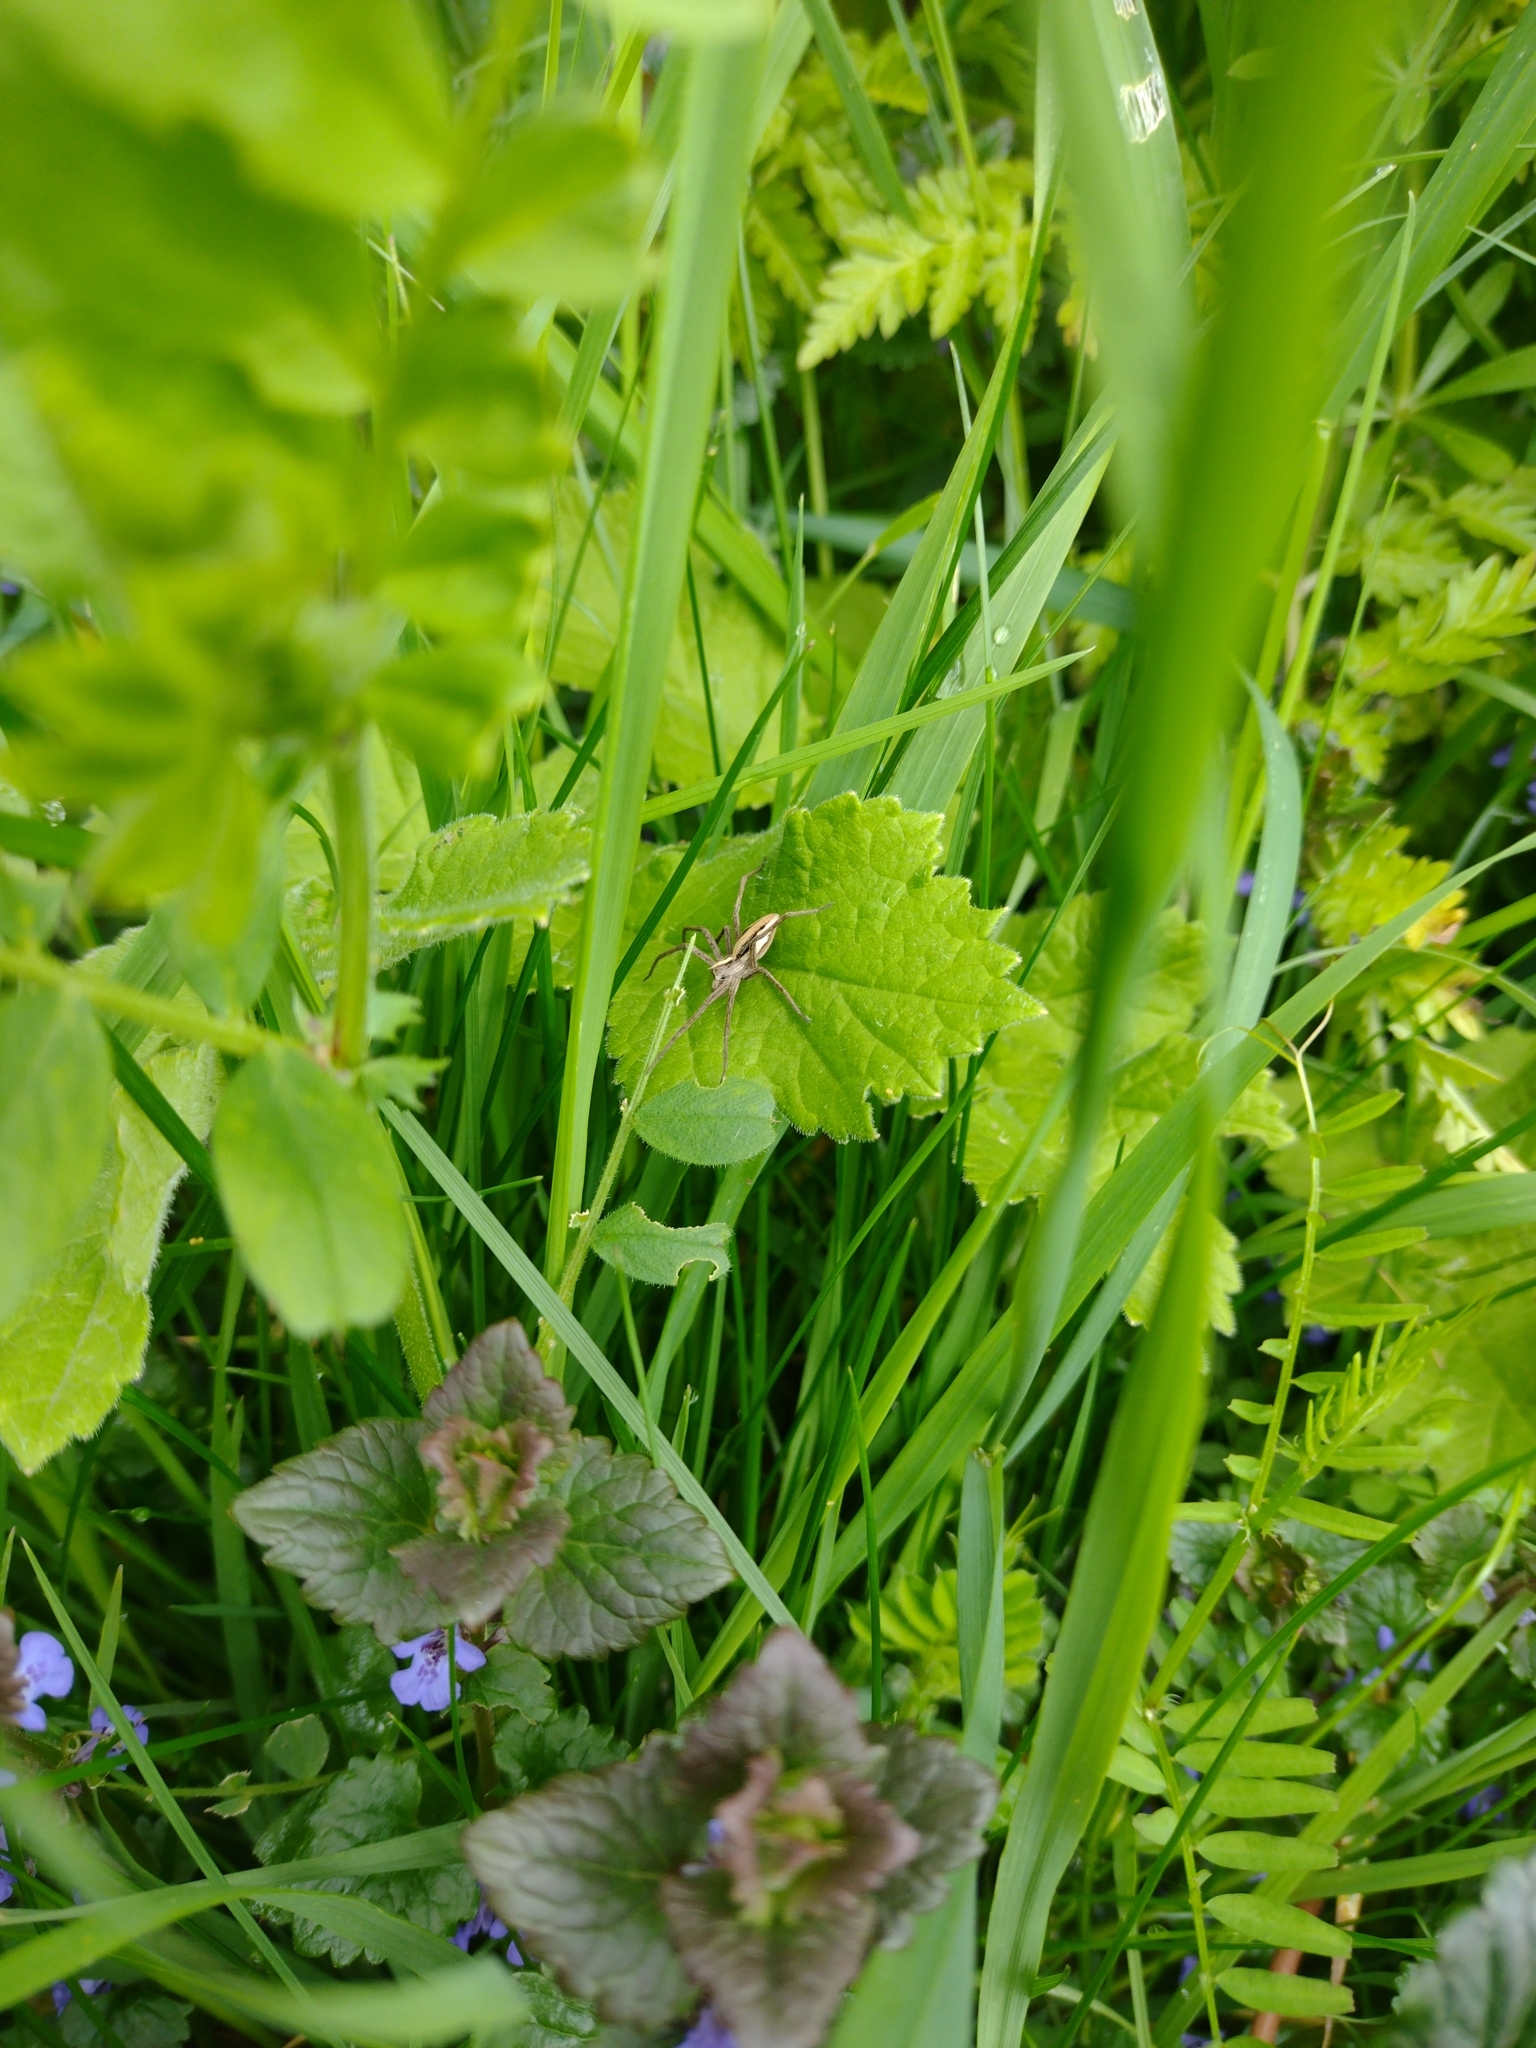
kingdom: Animalia
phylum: Arthropoda
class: Arachnida
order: Araneae
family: Pisauridae
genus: Pisaura
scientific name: Pisaura mirabilis
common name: Tent spider
